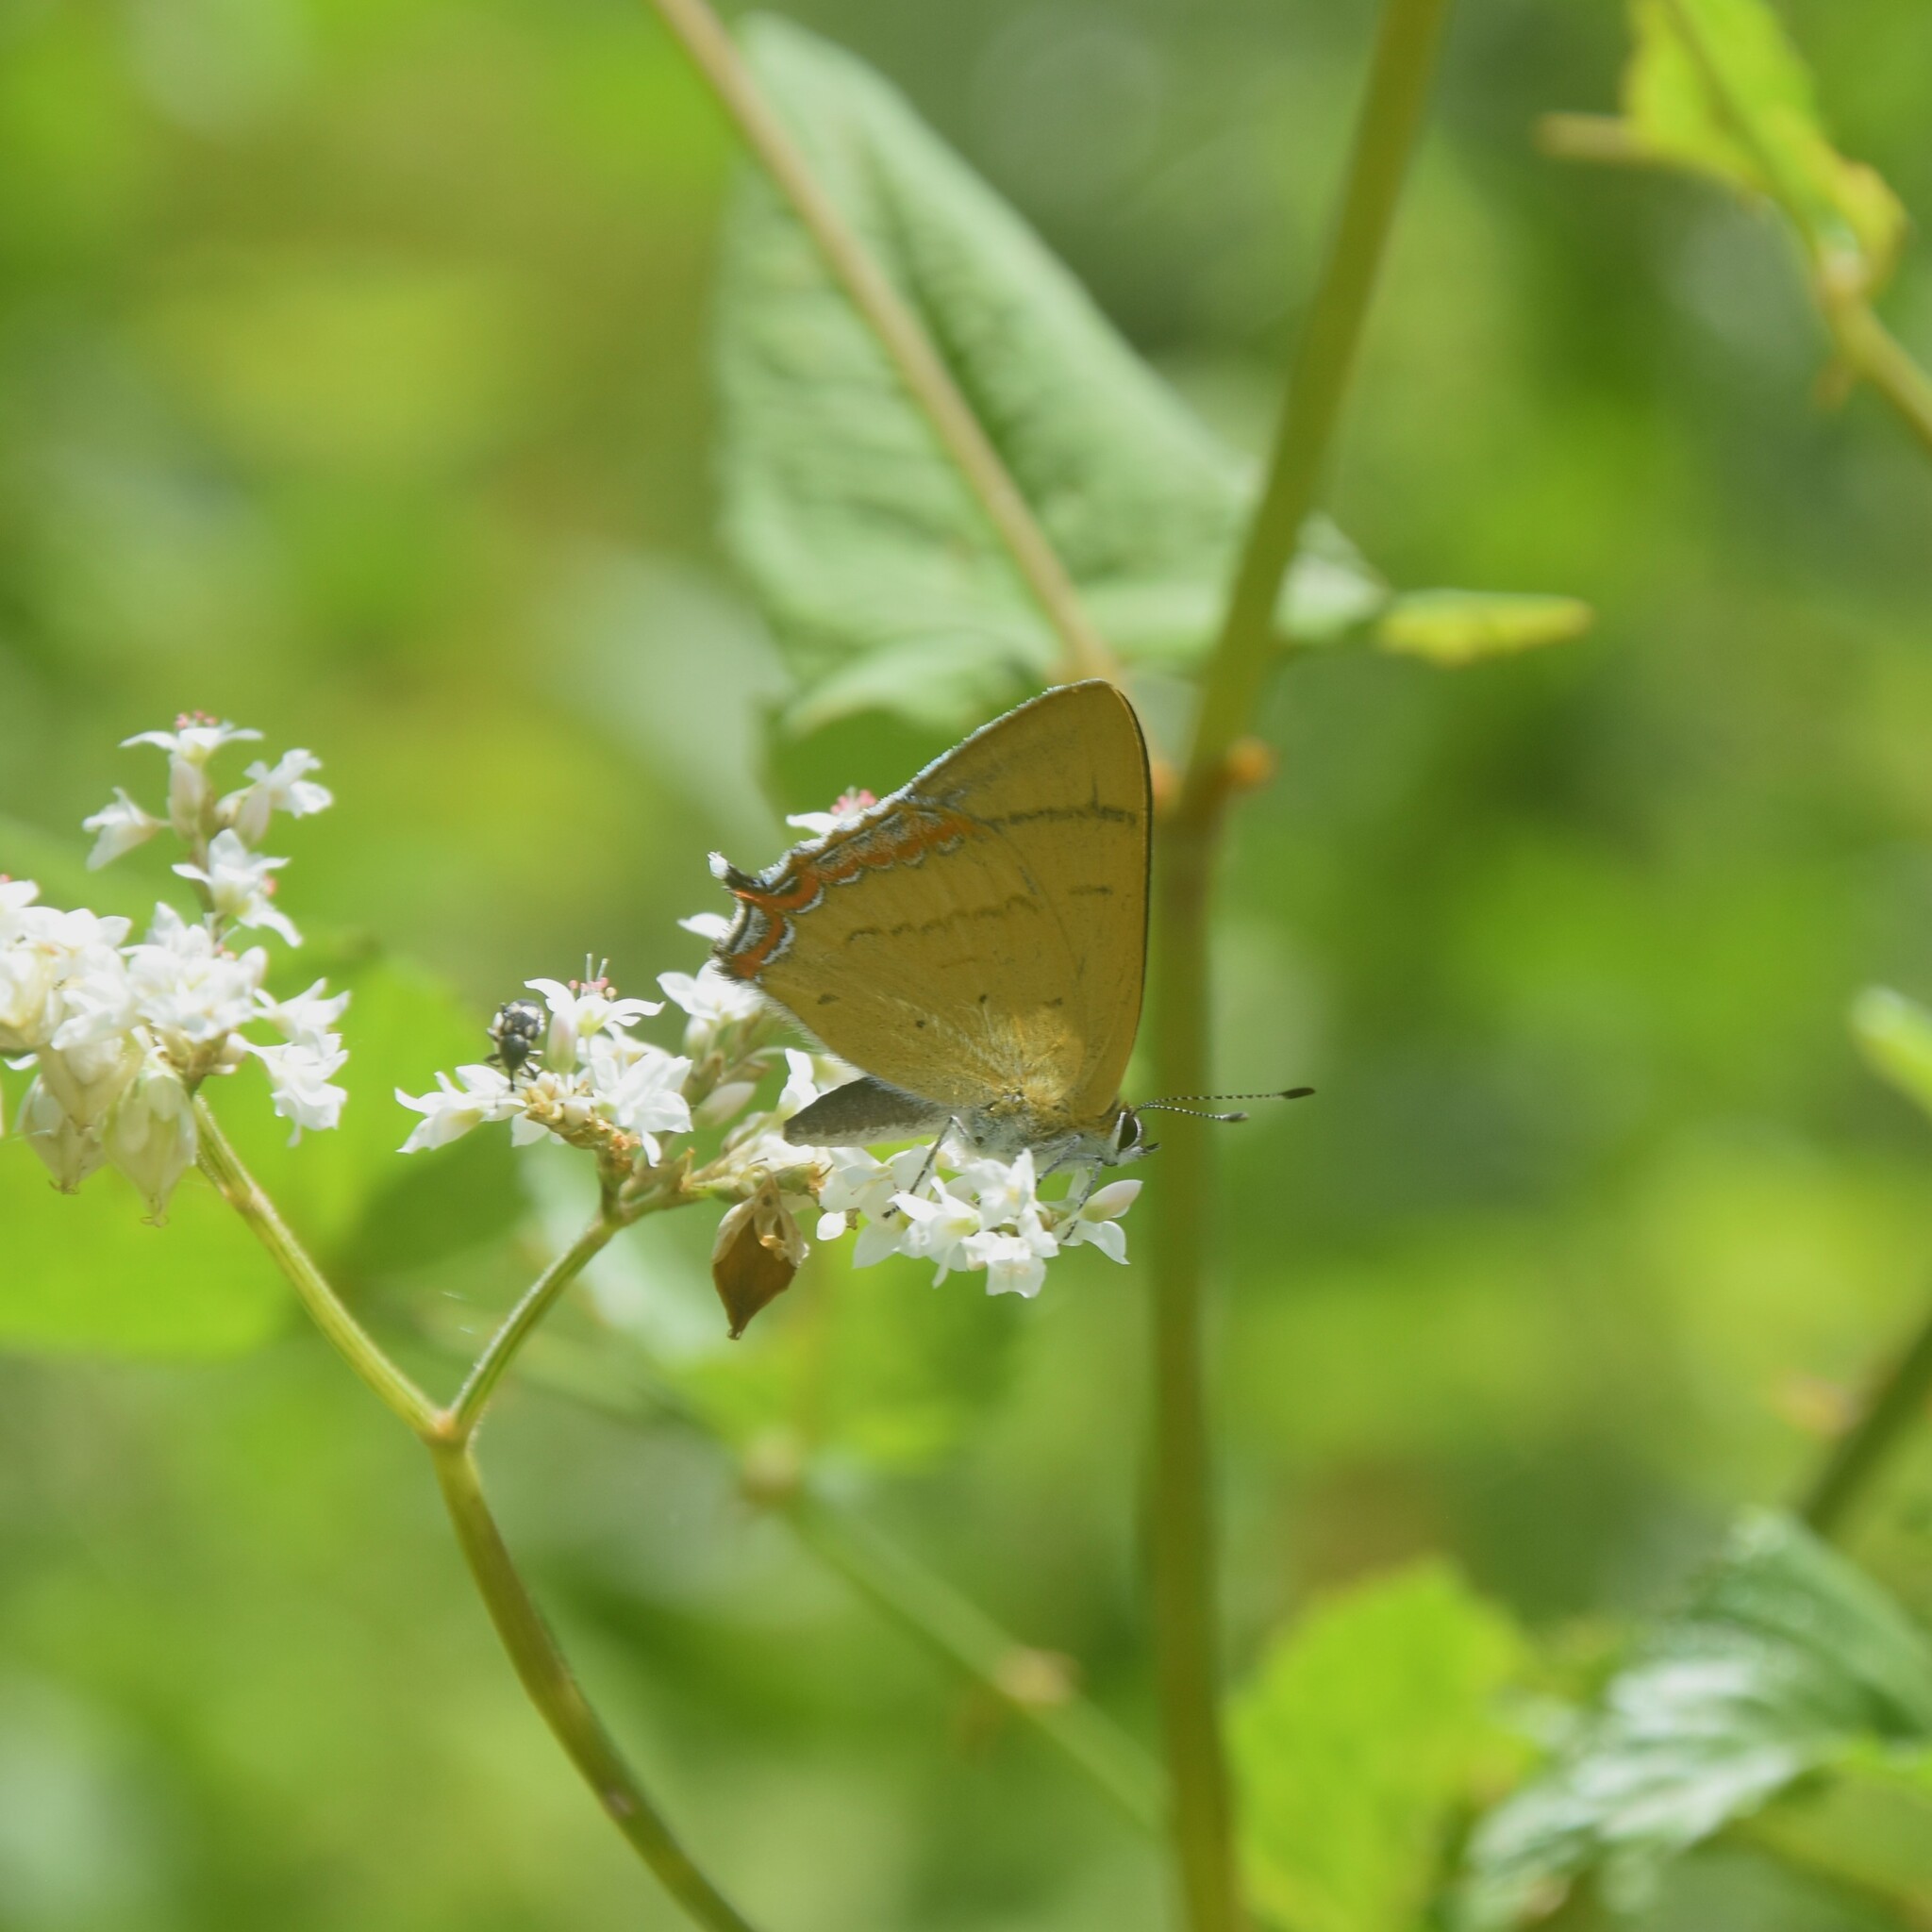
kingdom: Animalia
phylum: Arthropoda
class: Insecta
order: Lepidoptera
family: Lycaenidae
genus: Heliophorus
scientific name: Heliophorus
